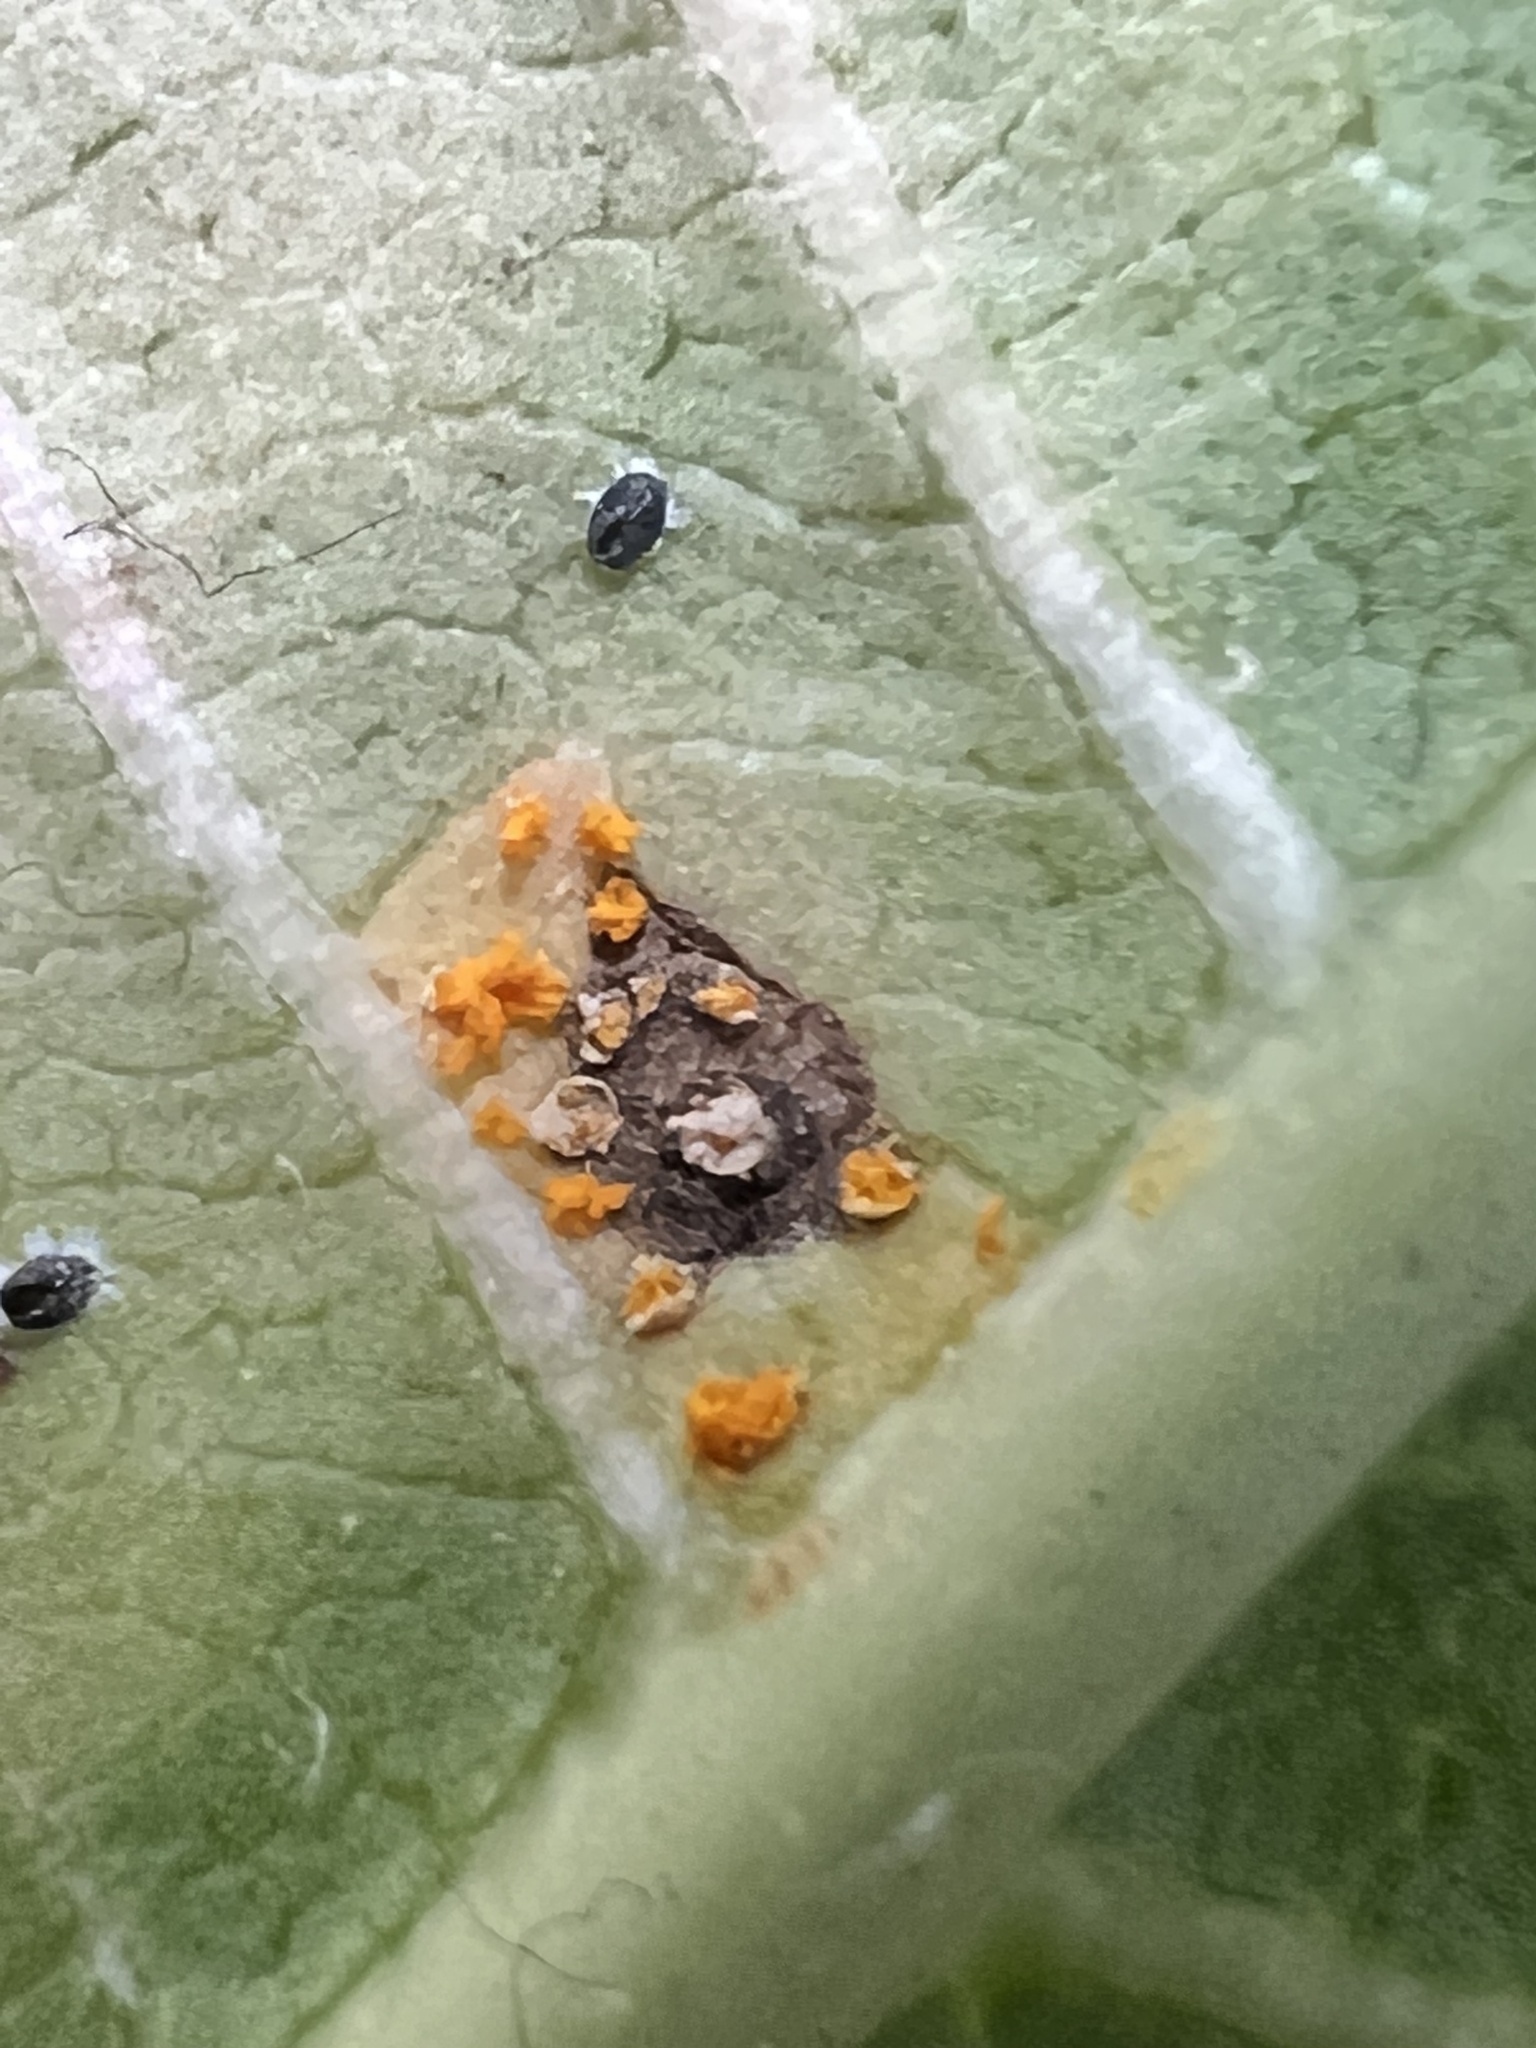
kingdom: Fungi
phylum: Basidiomycota
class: Pucciniomycetes
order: Pucciniales
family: Coleosporiaceae
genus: Coleosporium
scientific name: Coleosporium plumeriae
